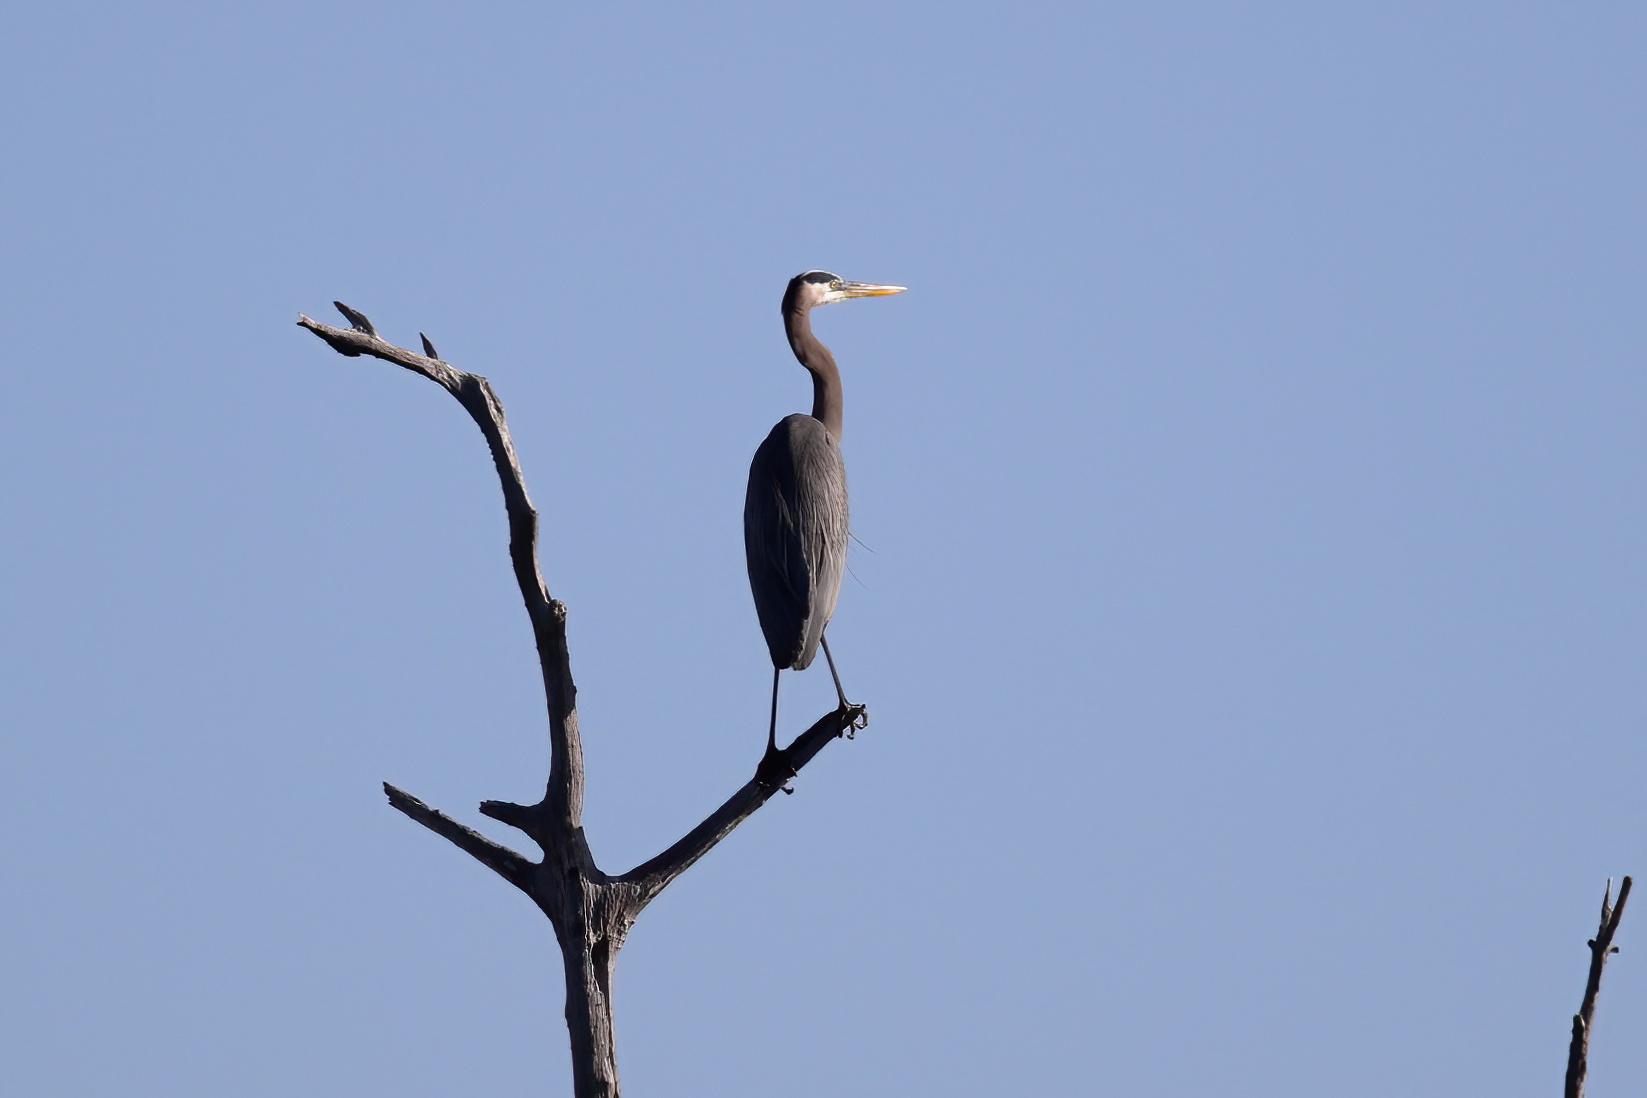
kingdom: Animalia
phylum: Chordata
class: Aves
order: Pelecaniformes
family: Ardeidae
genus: Ardea
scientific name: Ardea herodias
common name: Great blue heron
